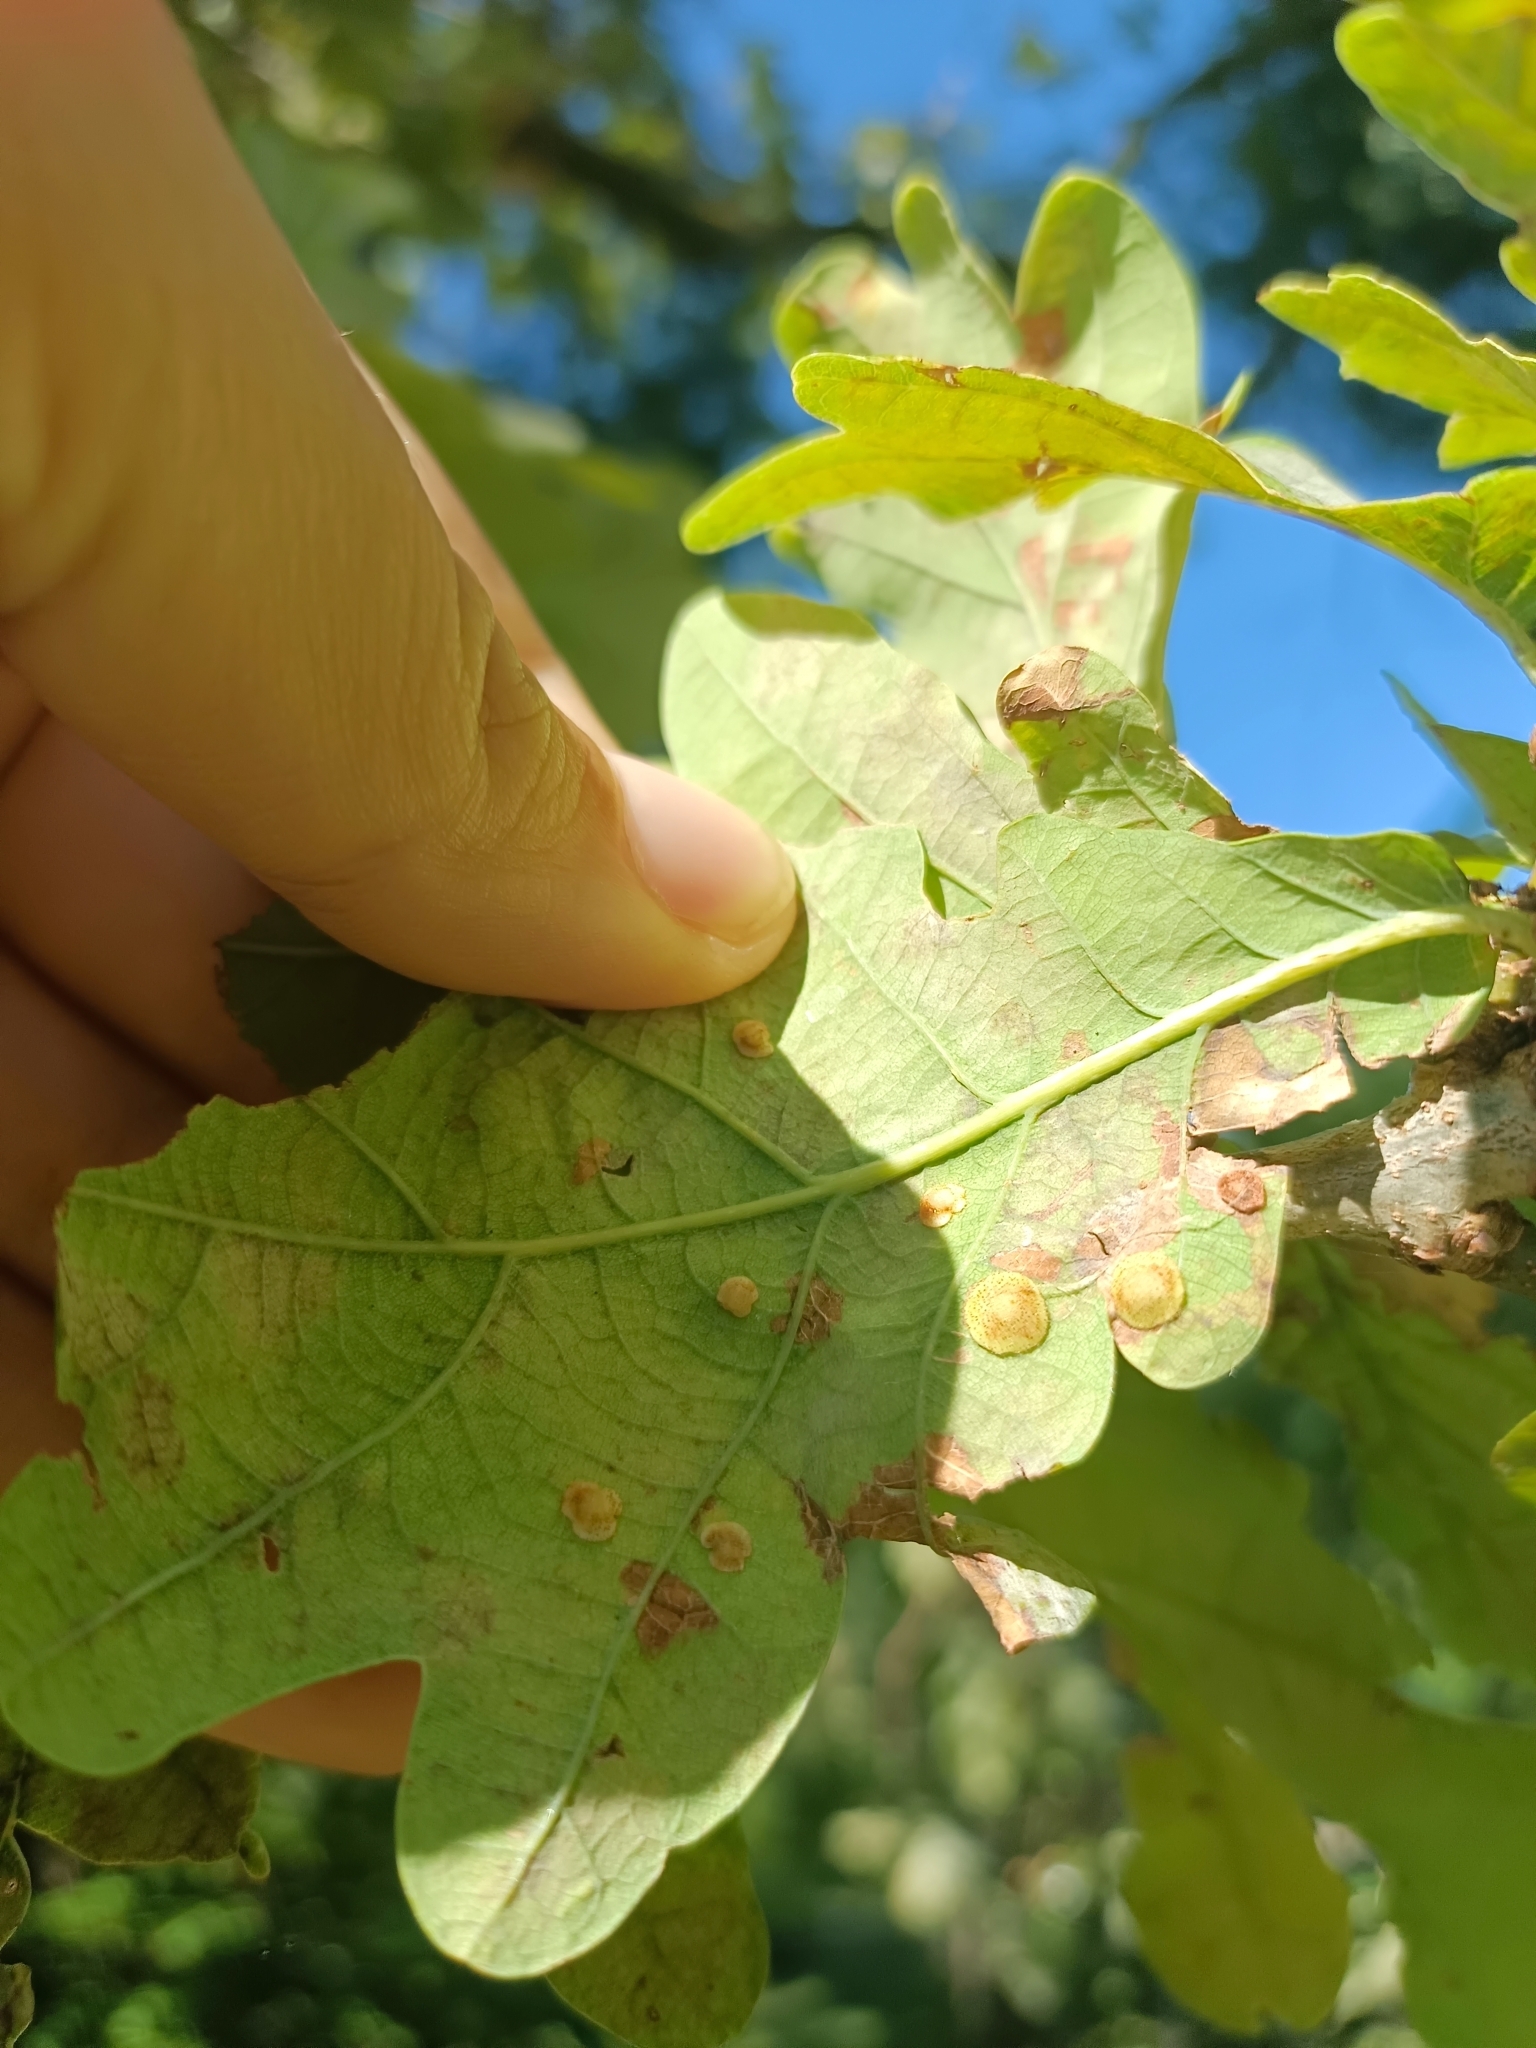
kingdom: Animalia
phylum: Arthropoda
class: Insecta
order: Hymenoptera
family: Cynipidae
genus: Neuroterus
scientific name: Neuroterus quercusbaccarum
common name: Common spangle gall
